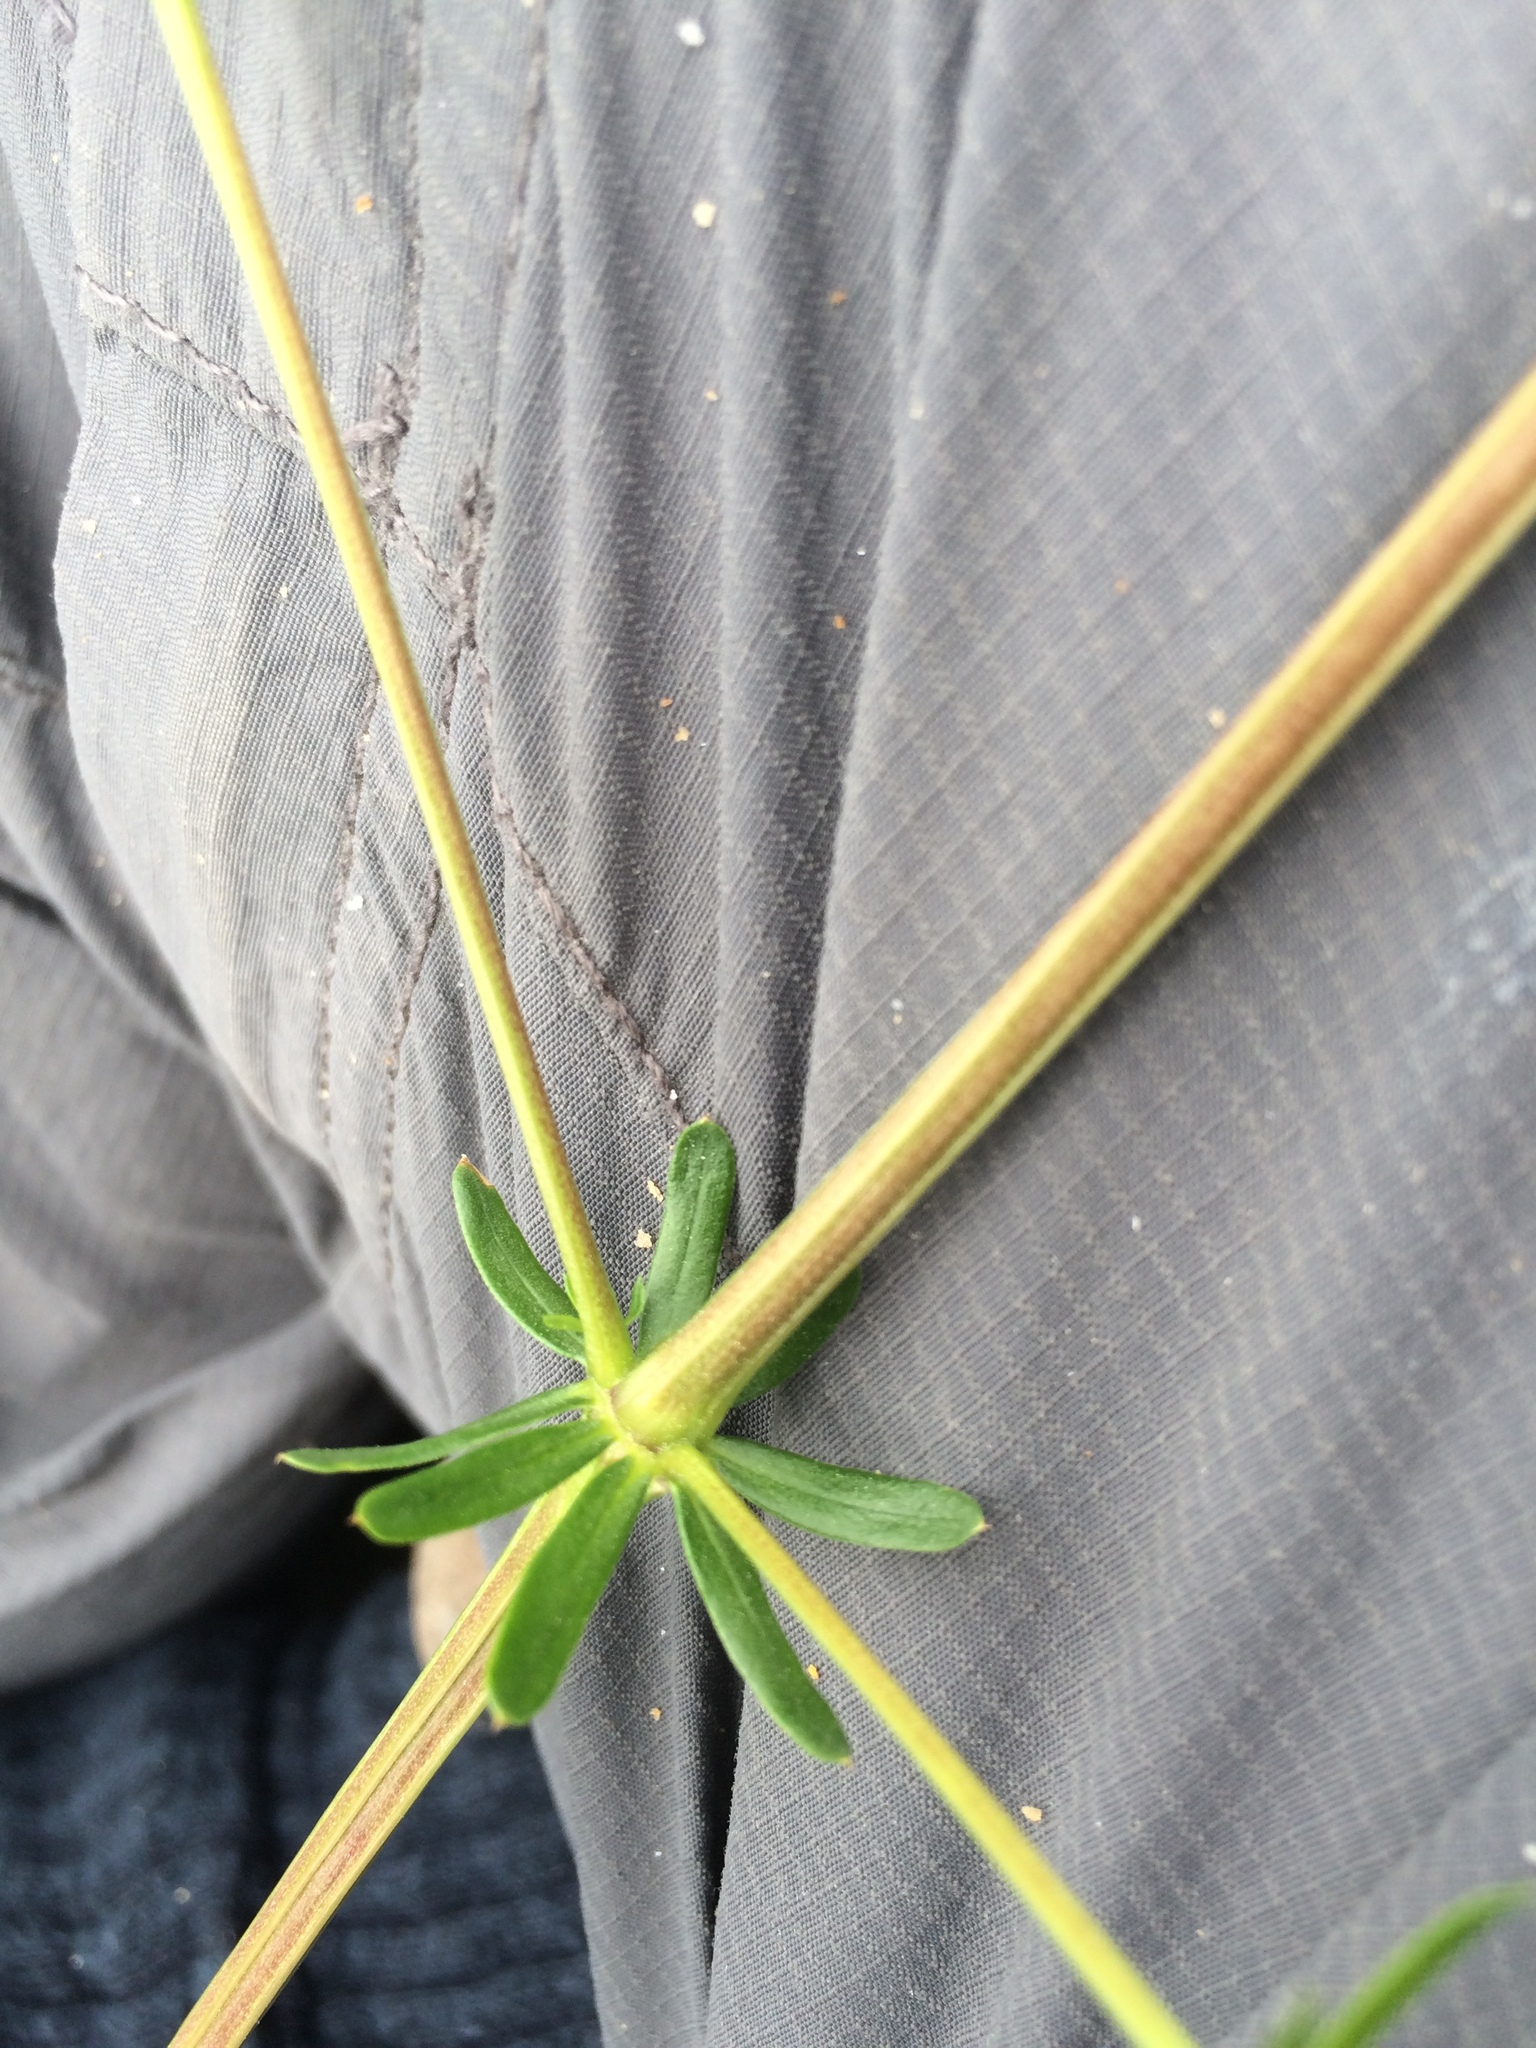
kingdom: Plantae
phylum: Tracheophyta
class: Magnoliopsida
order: Gentianales
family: Rubiaceae
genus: Galium
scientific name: Galium mollugo
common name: Hedge bedstraw
